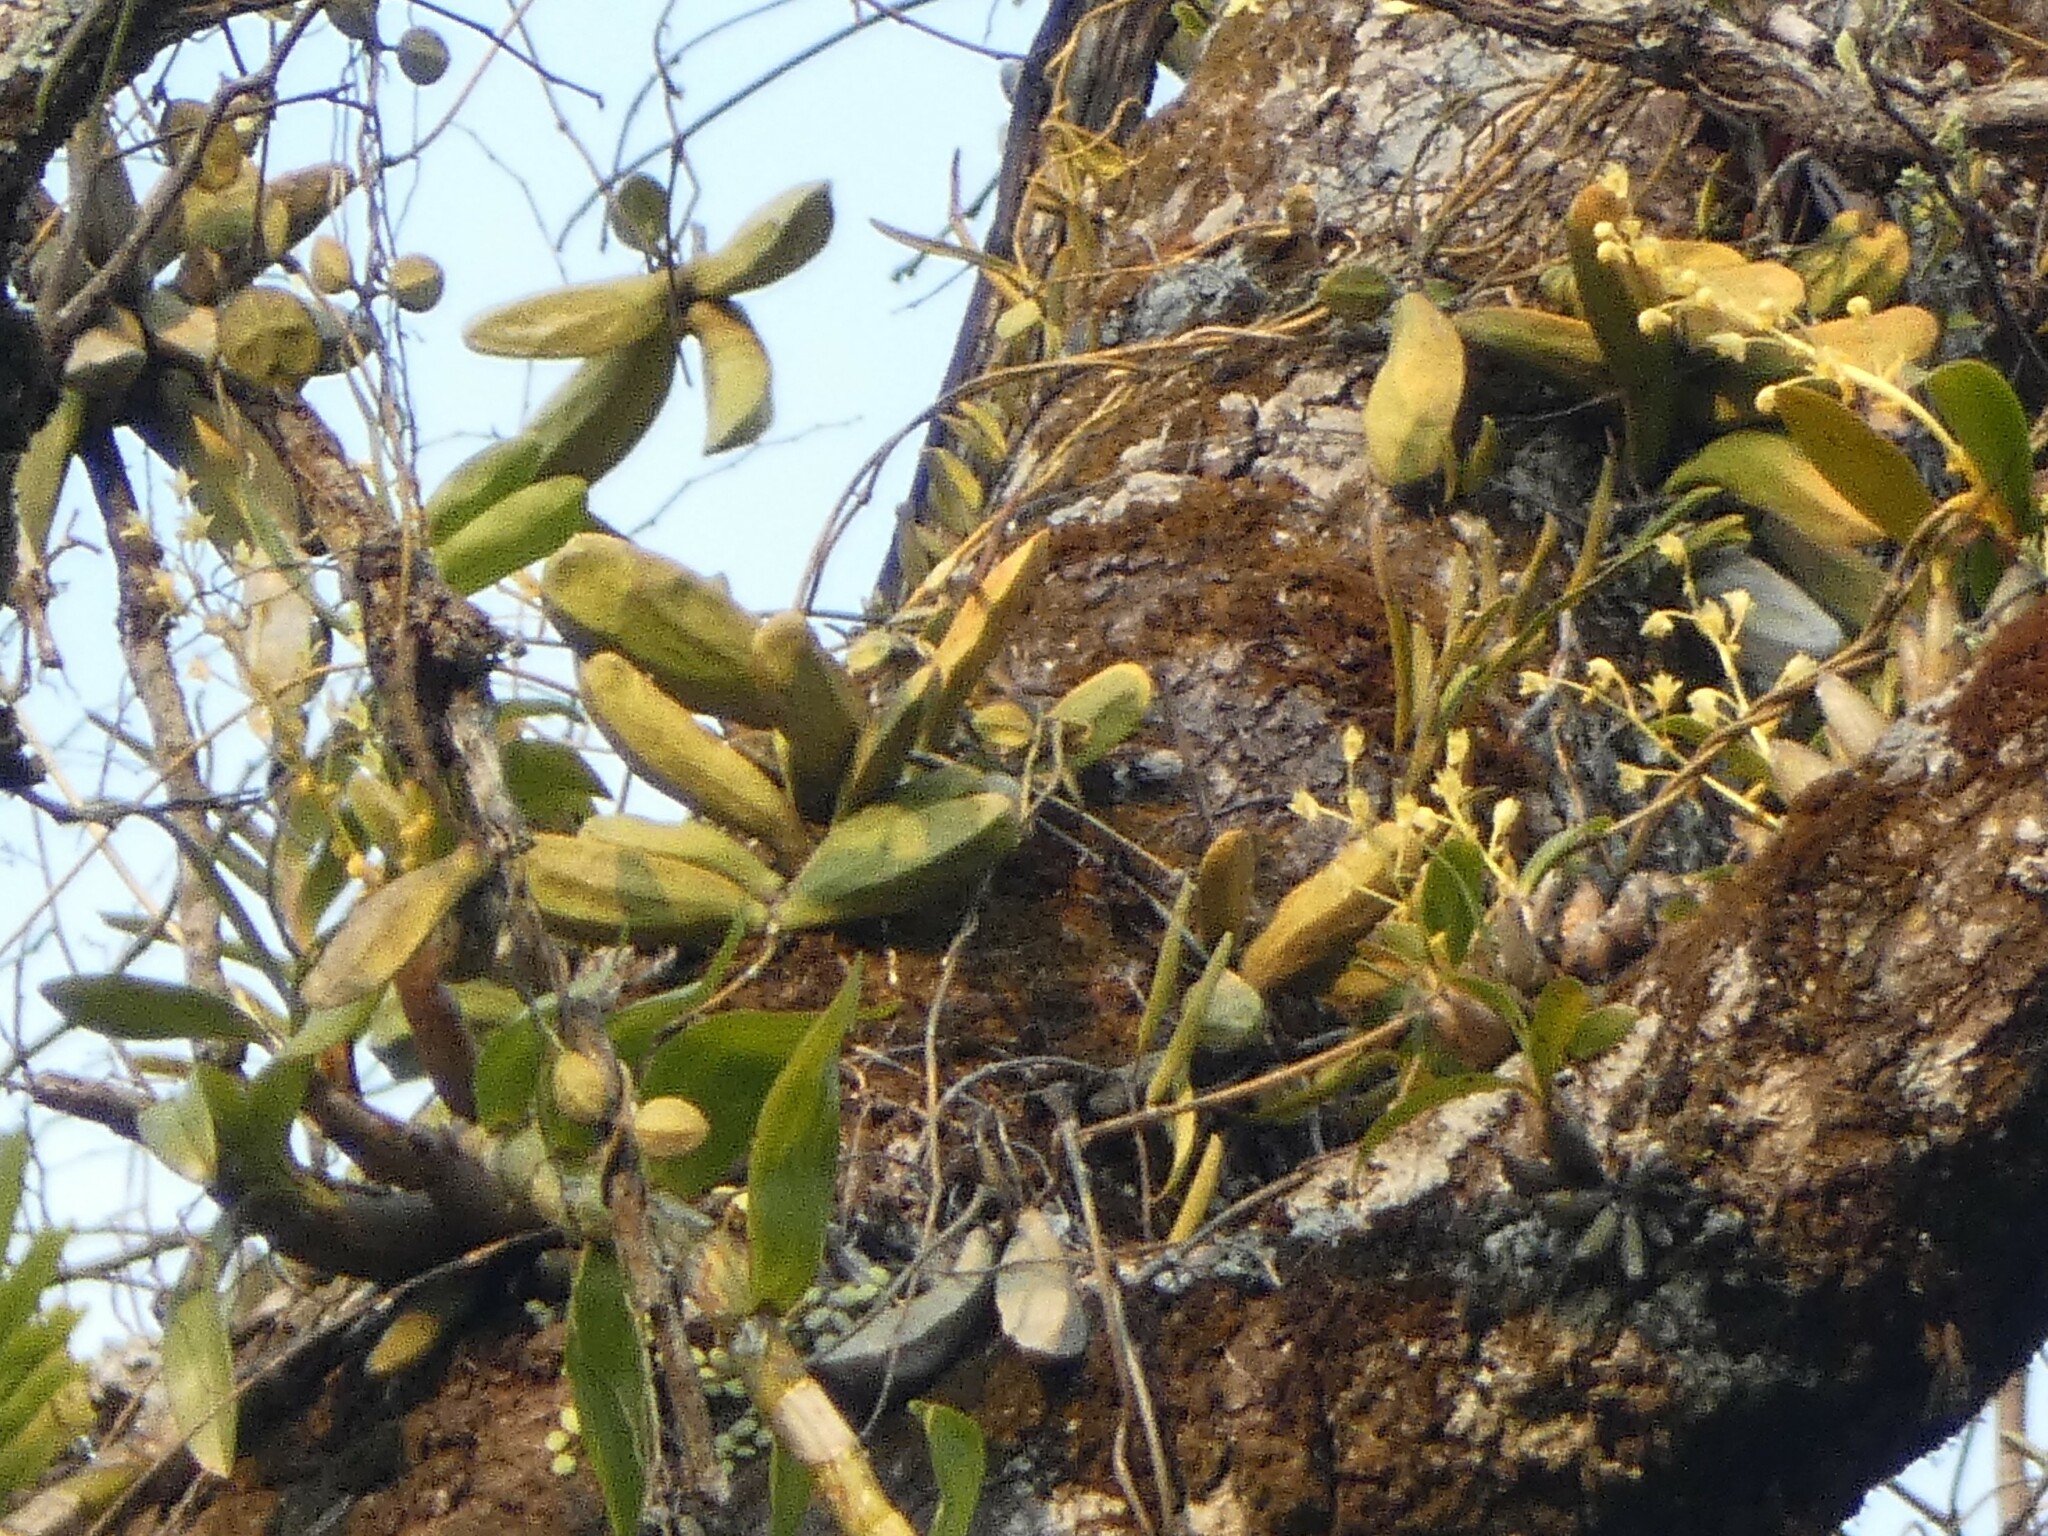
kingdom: Plantae
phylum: Tracheophyta
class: Magnoliopsida
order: Gentianales
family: Apocynaceae
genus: Dischidia
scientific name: Dischidia major
